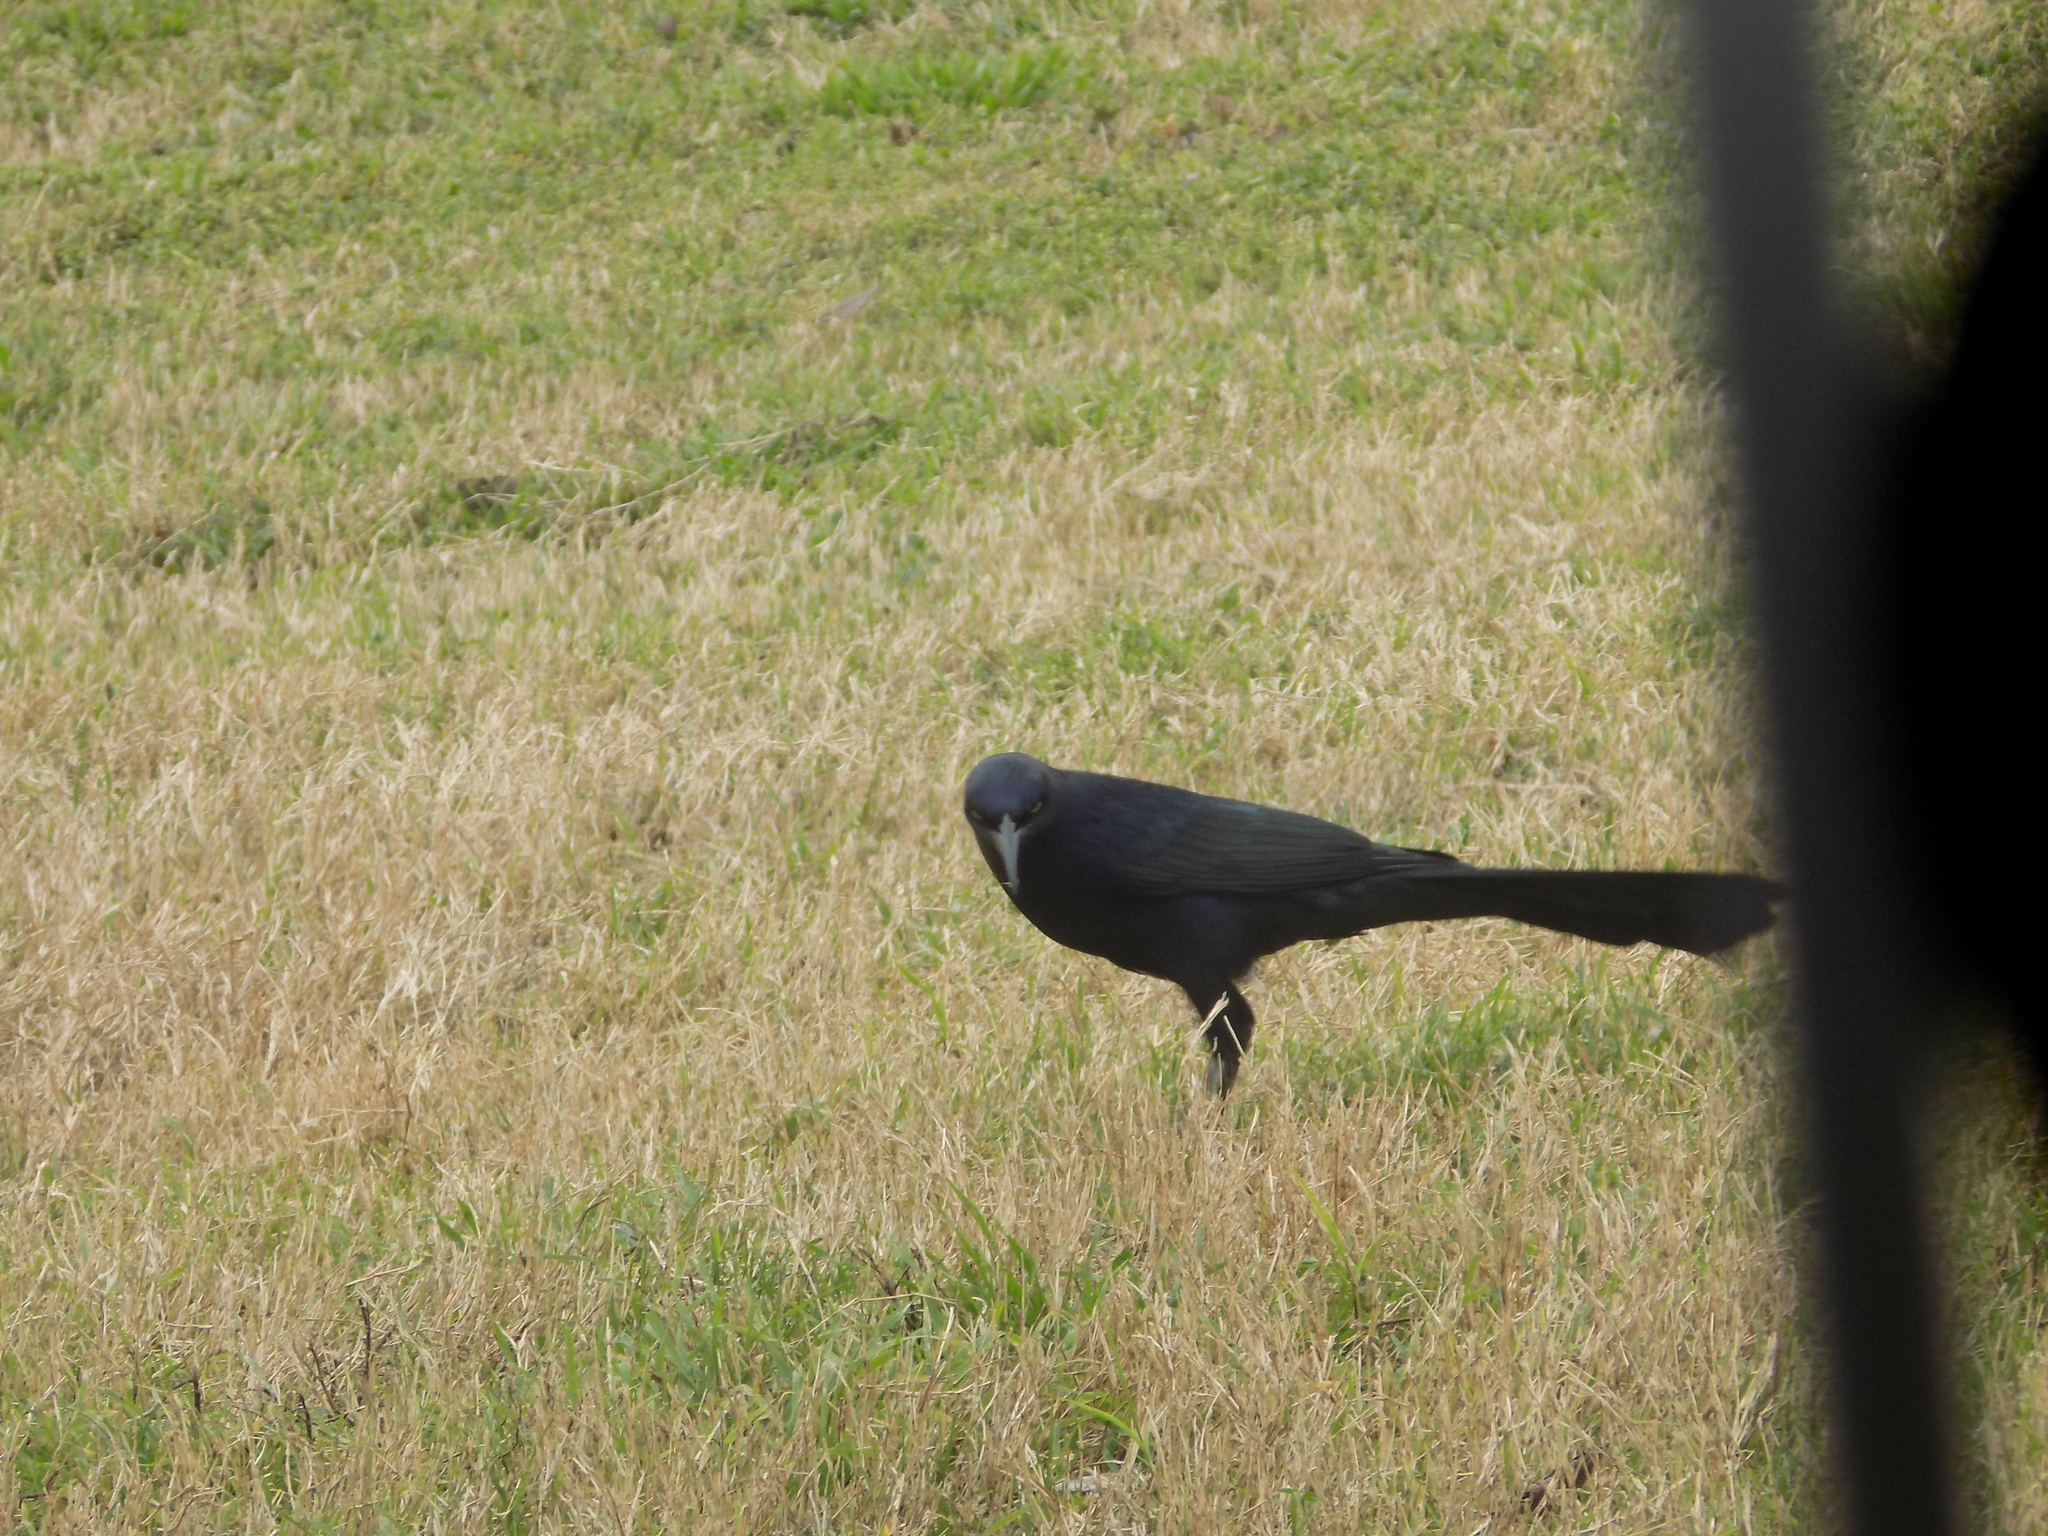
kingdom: Animalia
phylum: Chordata
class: Aves
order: Passeriformes
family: Icteridae
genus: Quiscalus
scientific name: Quiscalus mexicanus
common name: Great-tailed grackle
